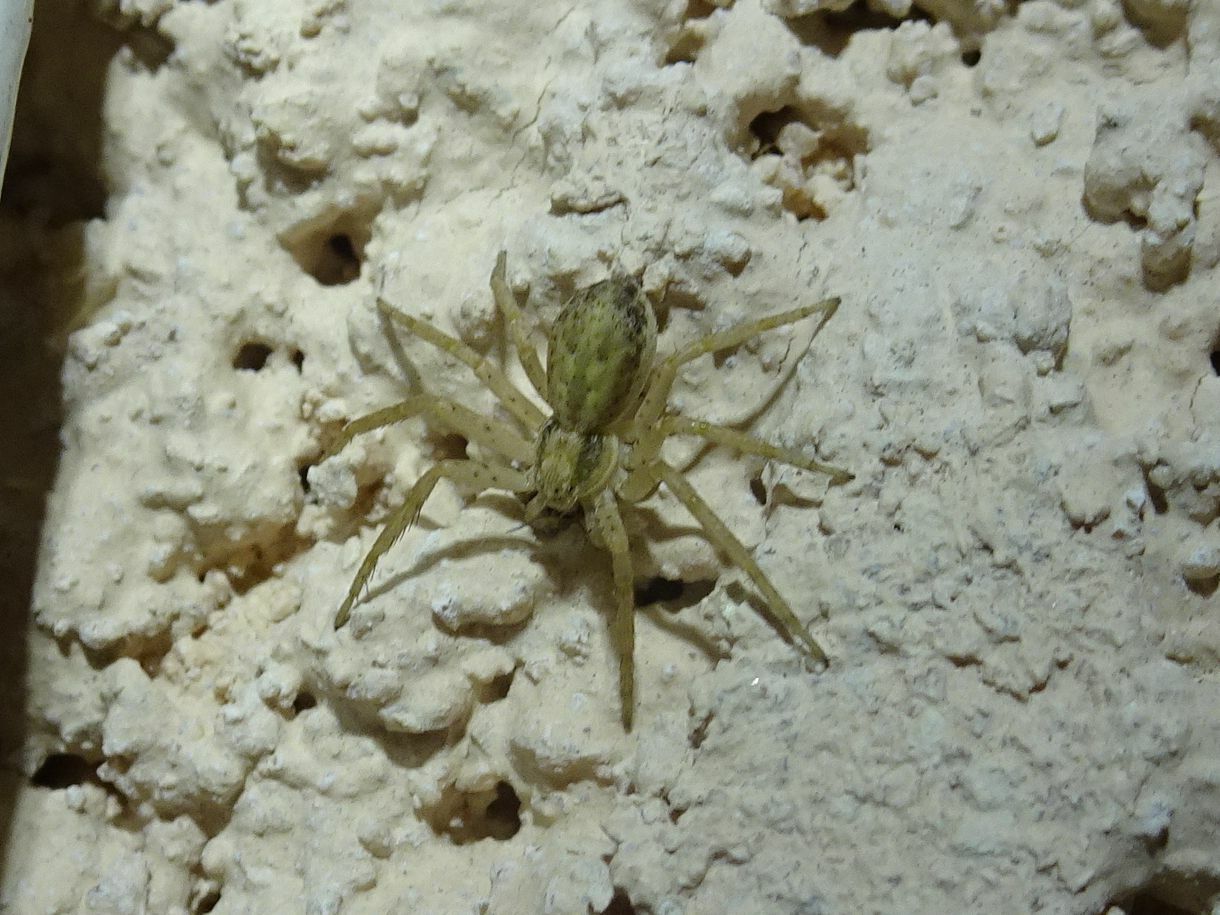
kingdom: Animalia
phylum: Arthropoda
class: Arachnida
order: Araneae
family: Philodromidae
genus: Philodromus
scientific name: Philodromus dispar
